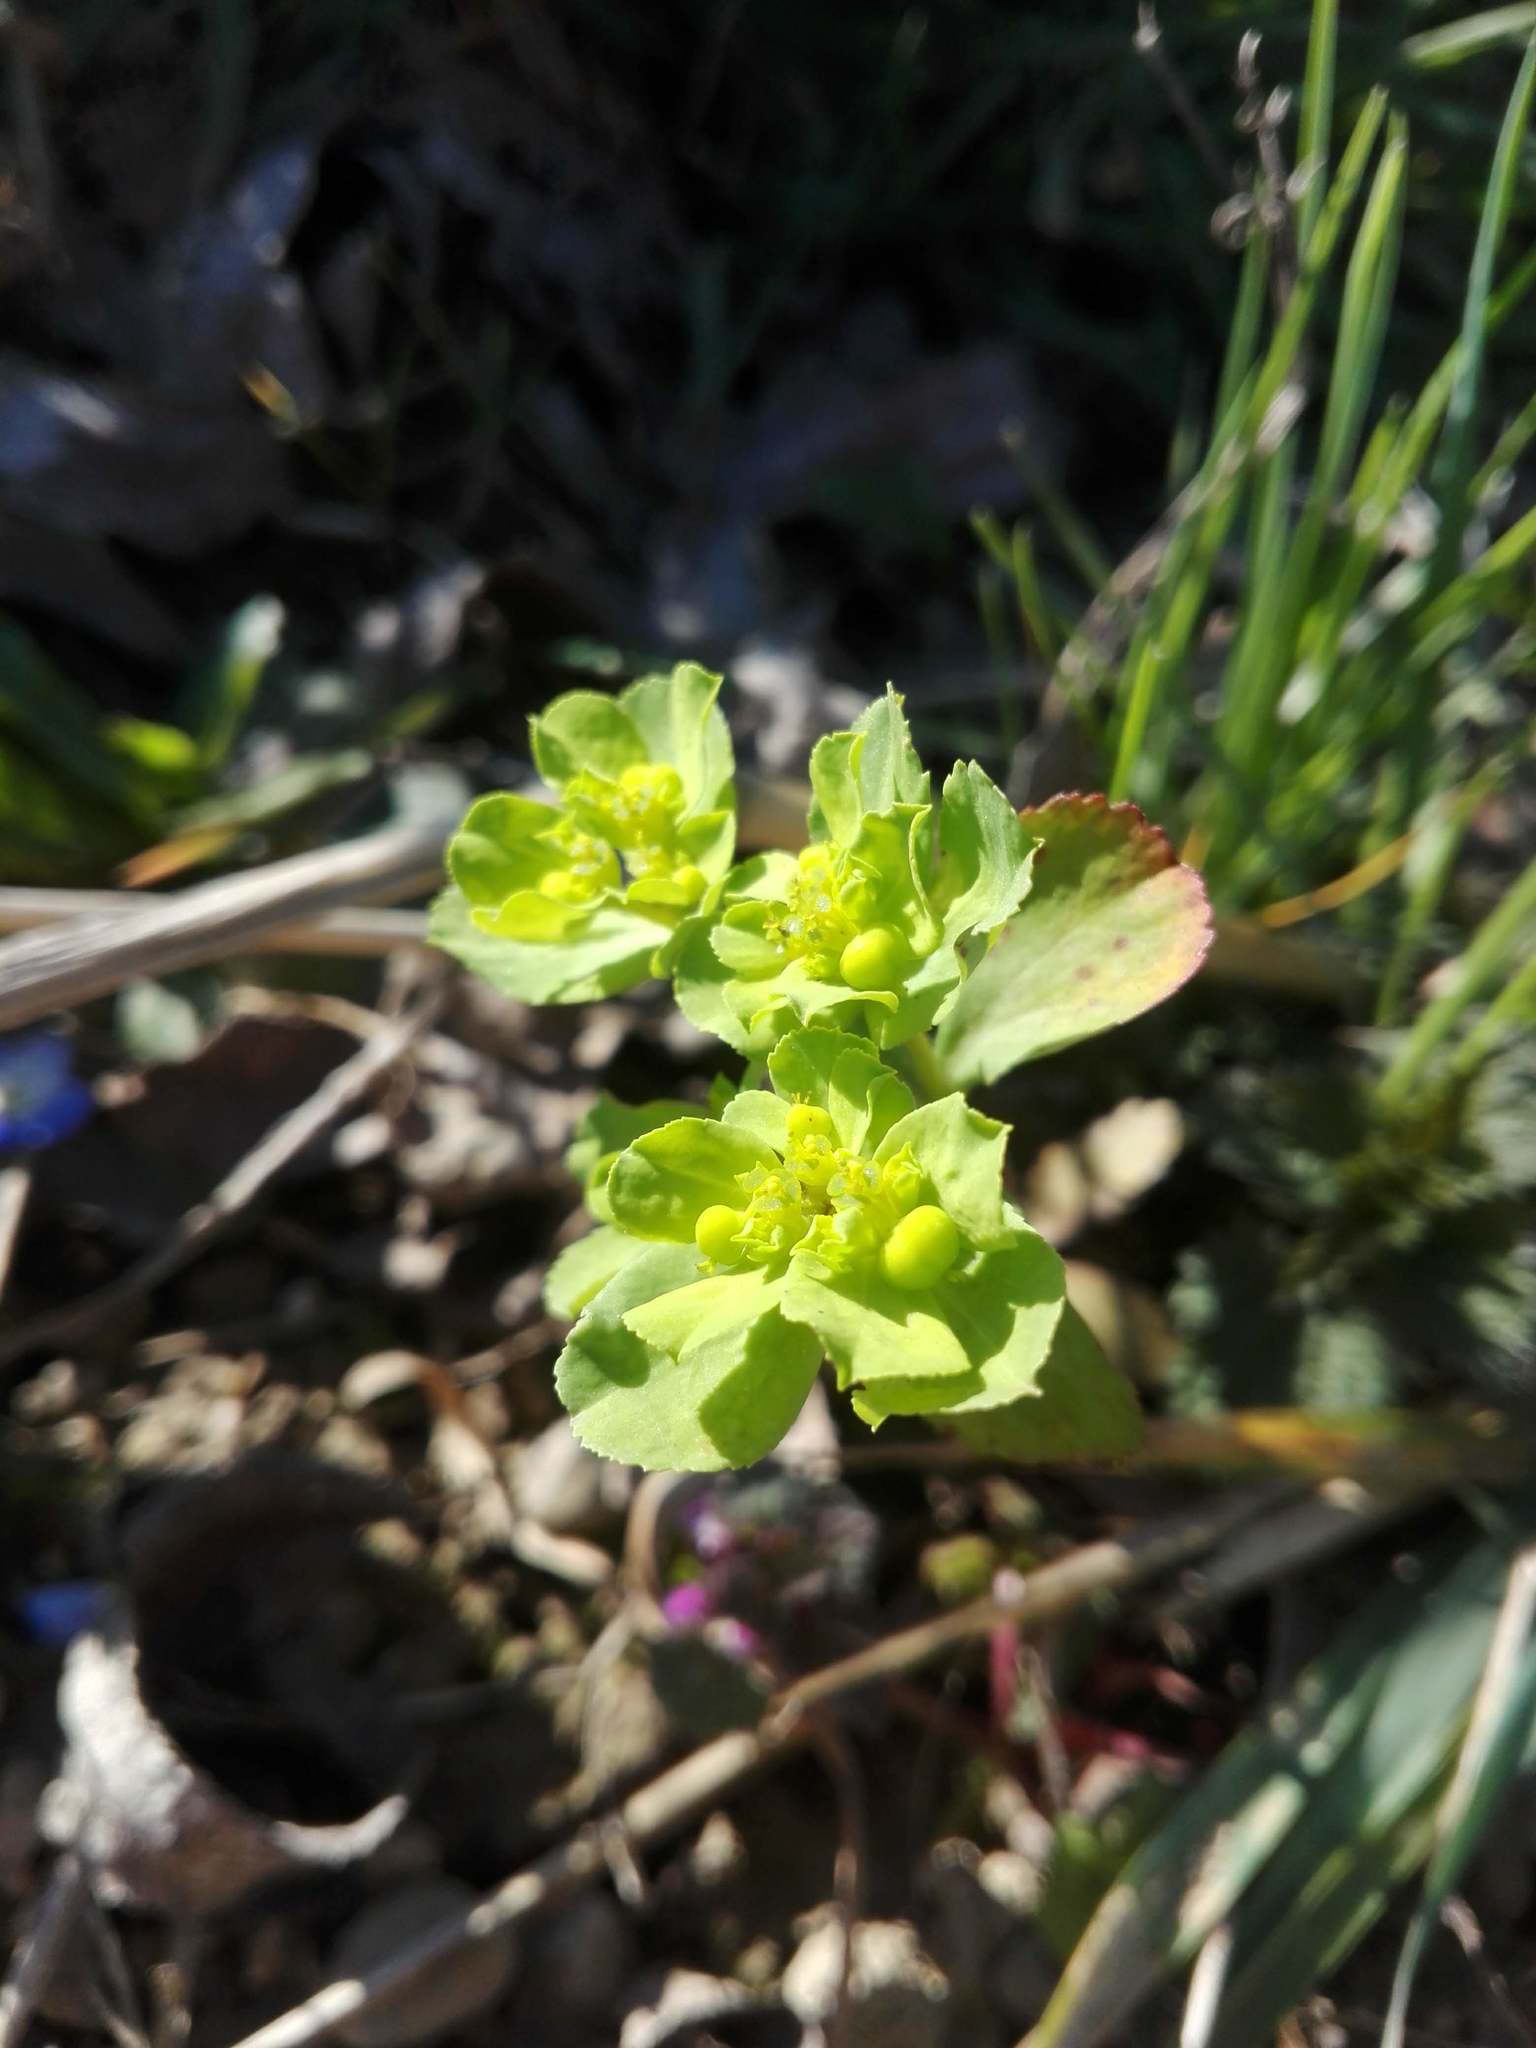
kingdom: Plantae
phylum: Tracheophyta
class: Magnoliopsida
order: Malpighiales
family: Euphorbiaceae
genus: Euphorbia
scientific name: Euphorbia helioscopia
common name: Sun spurge
